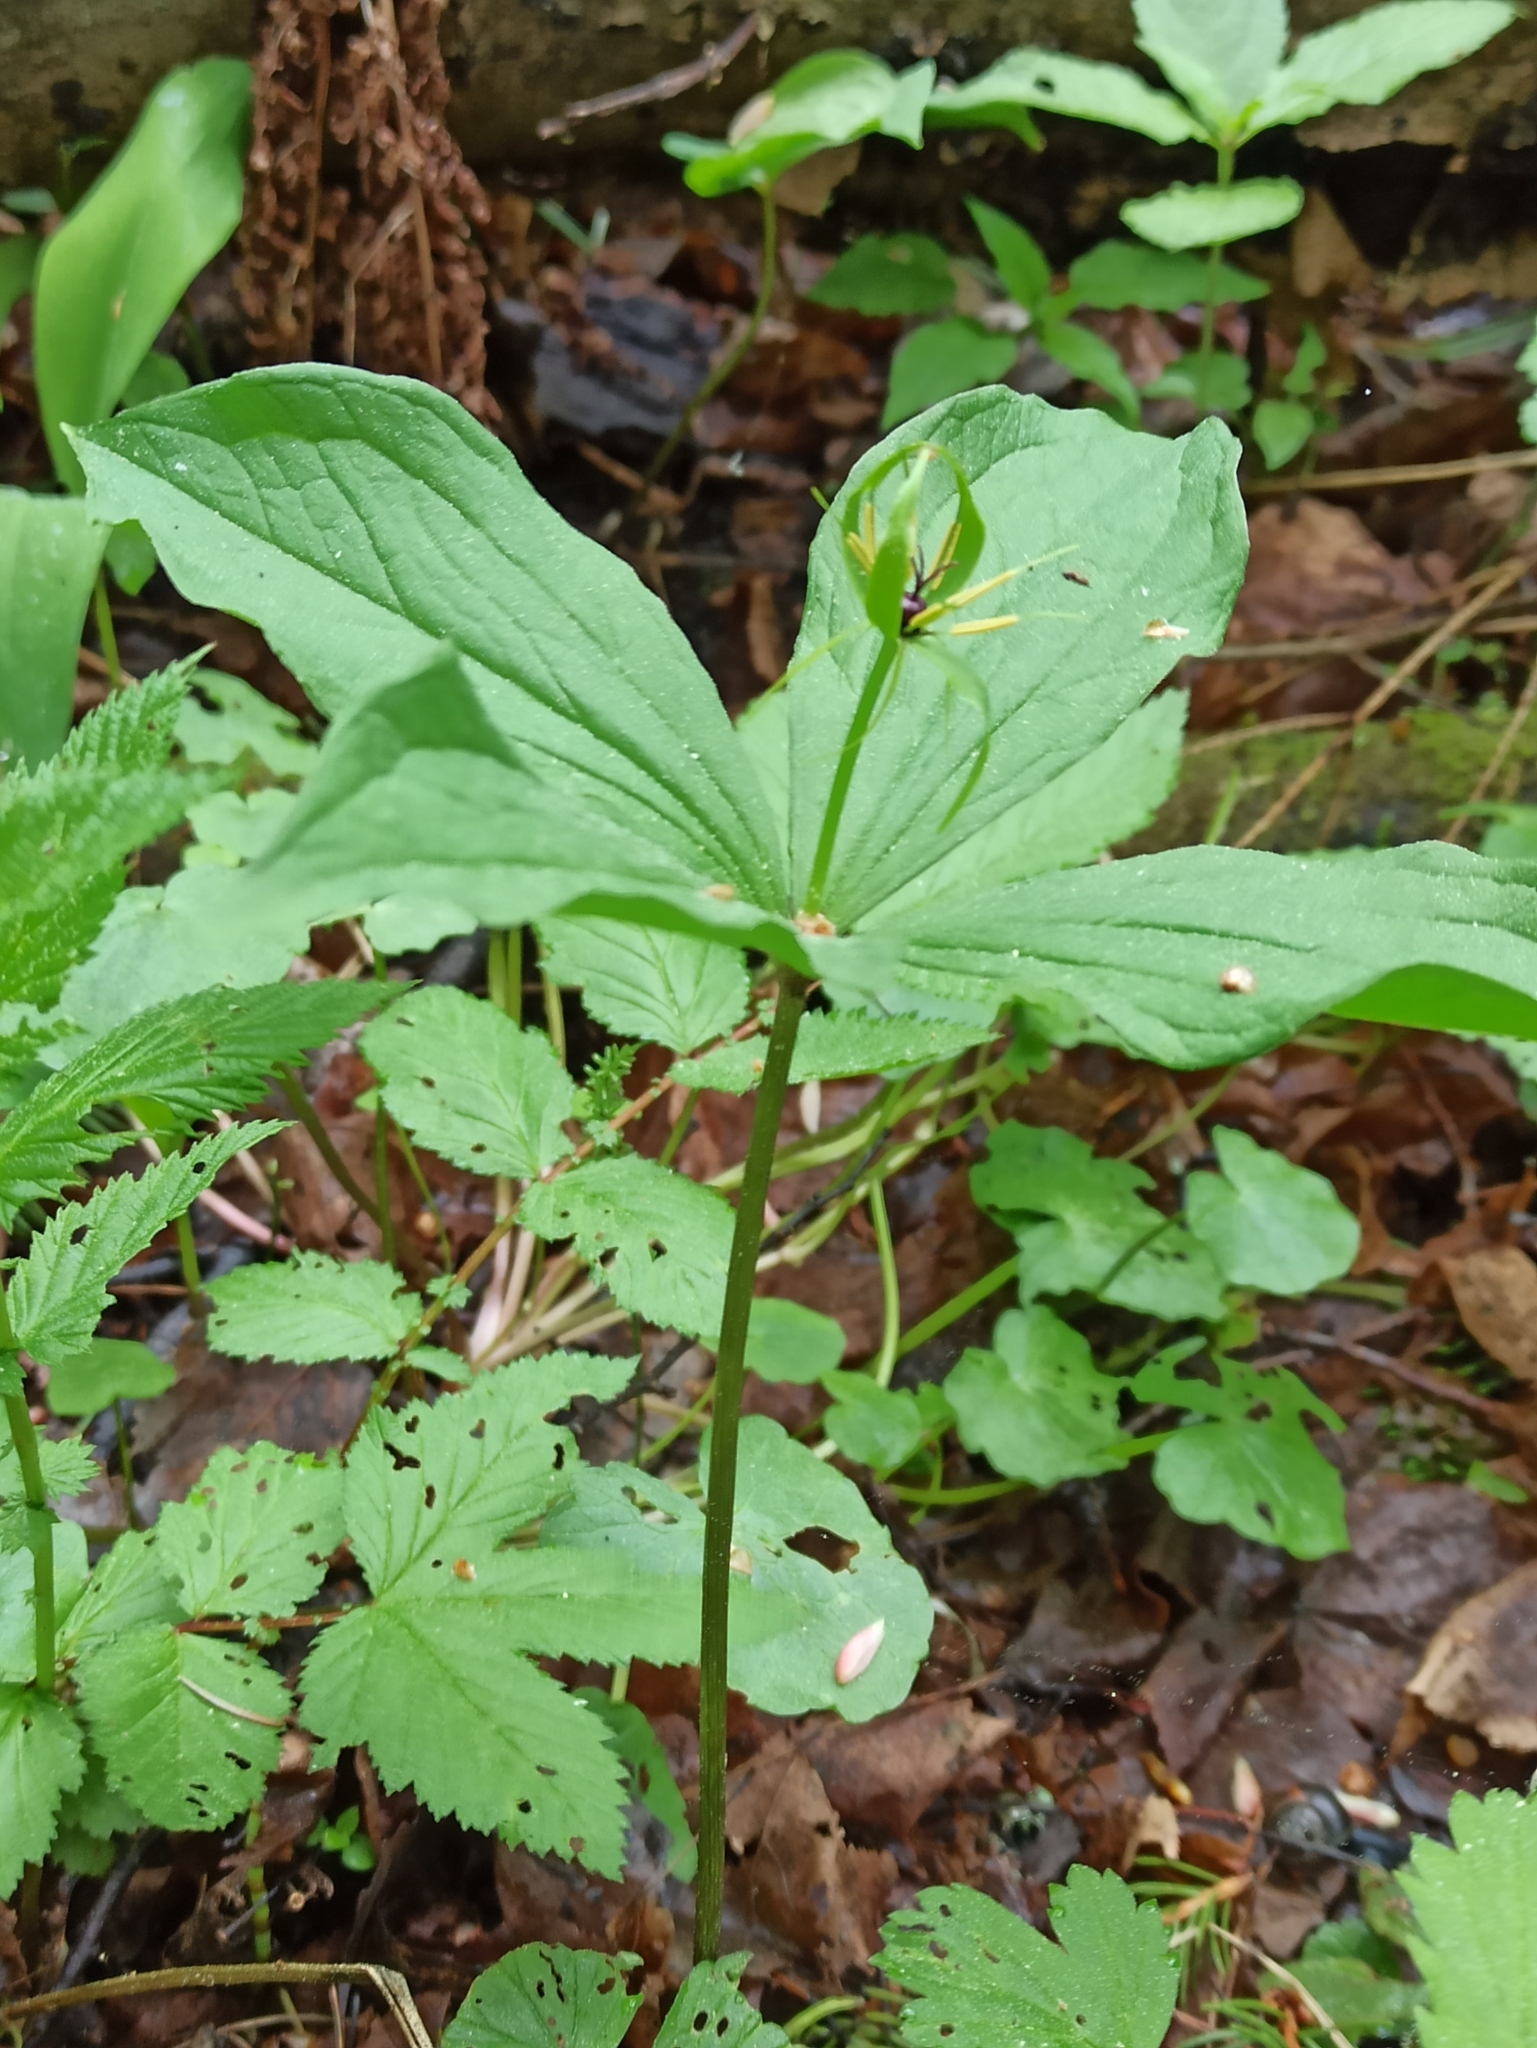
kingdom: Plantae
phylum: Tracheophyta
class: Liliopsida
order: Liliales
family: Melanthiaceae
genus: Paris
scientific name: Paris quadrifolia
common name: Herb-paris
